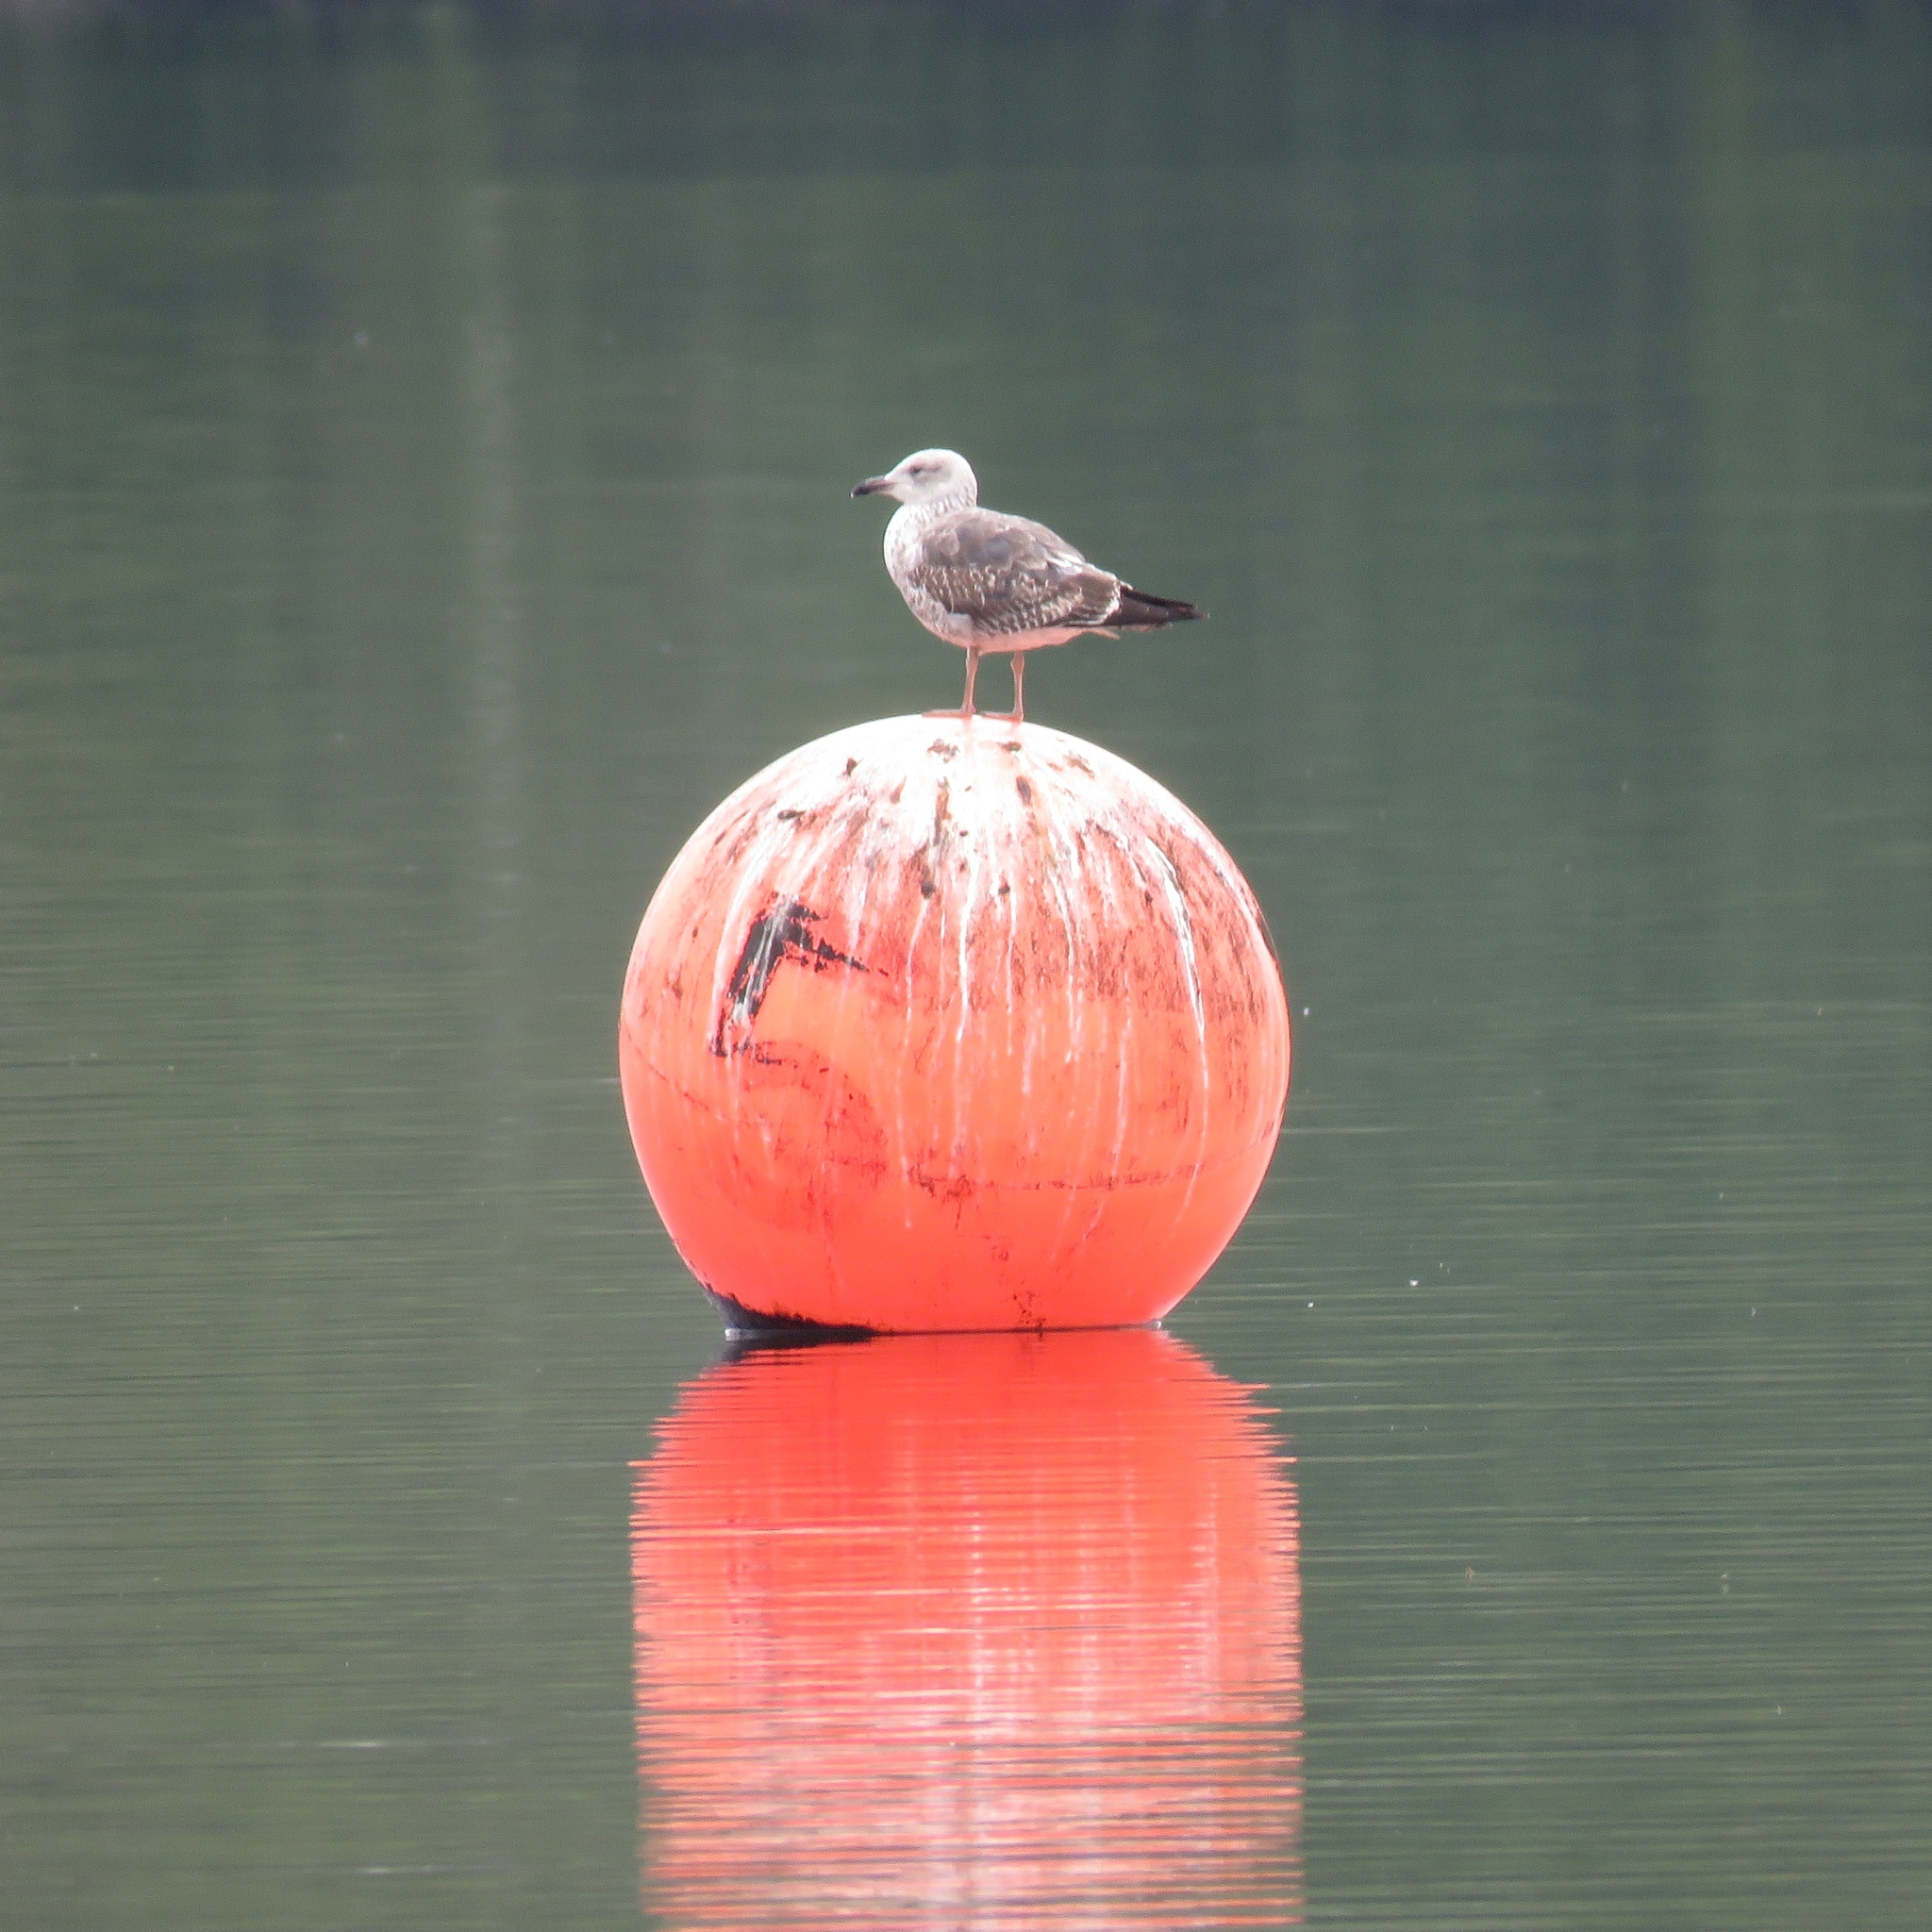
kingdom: Animalia
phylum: Chordata
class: Aves
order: Charadriiformes
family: Laridae
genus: Larus
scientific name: Larus argentatus
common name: Herring gull
